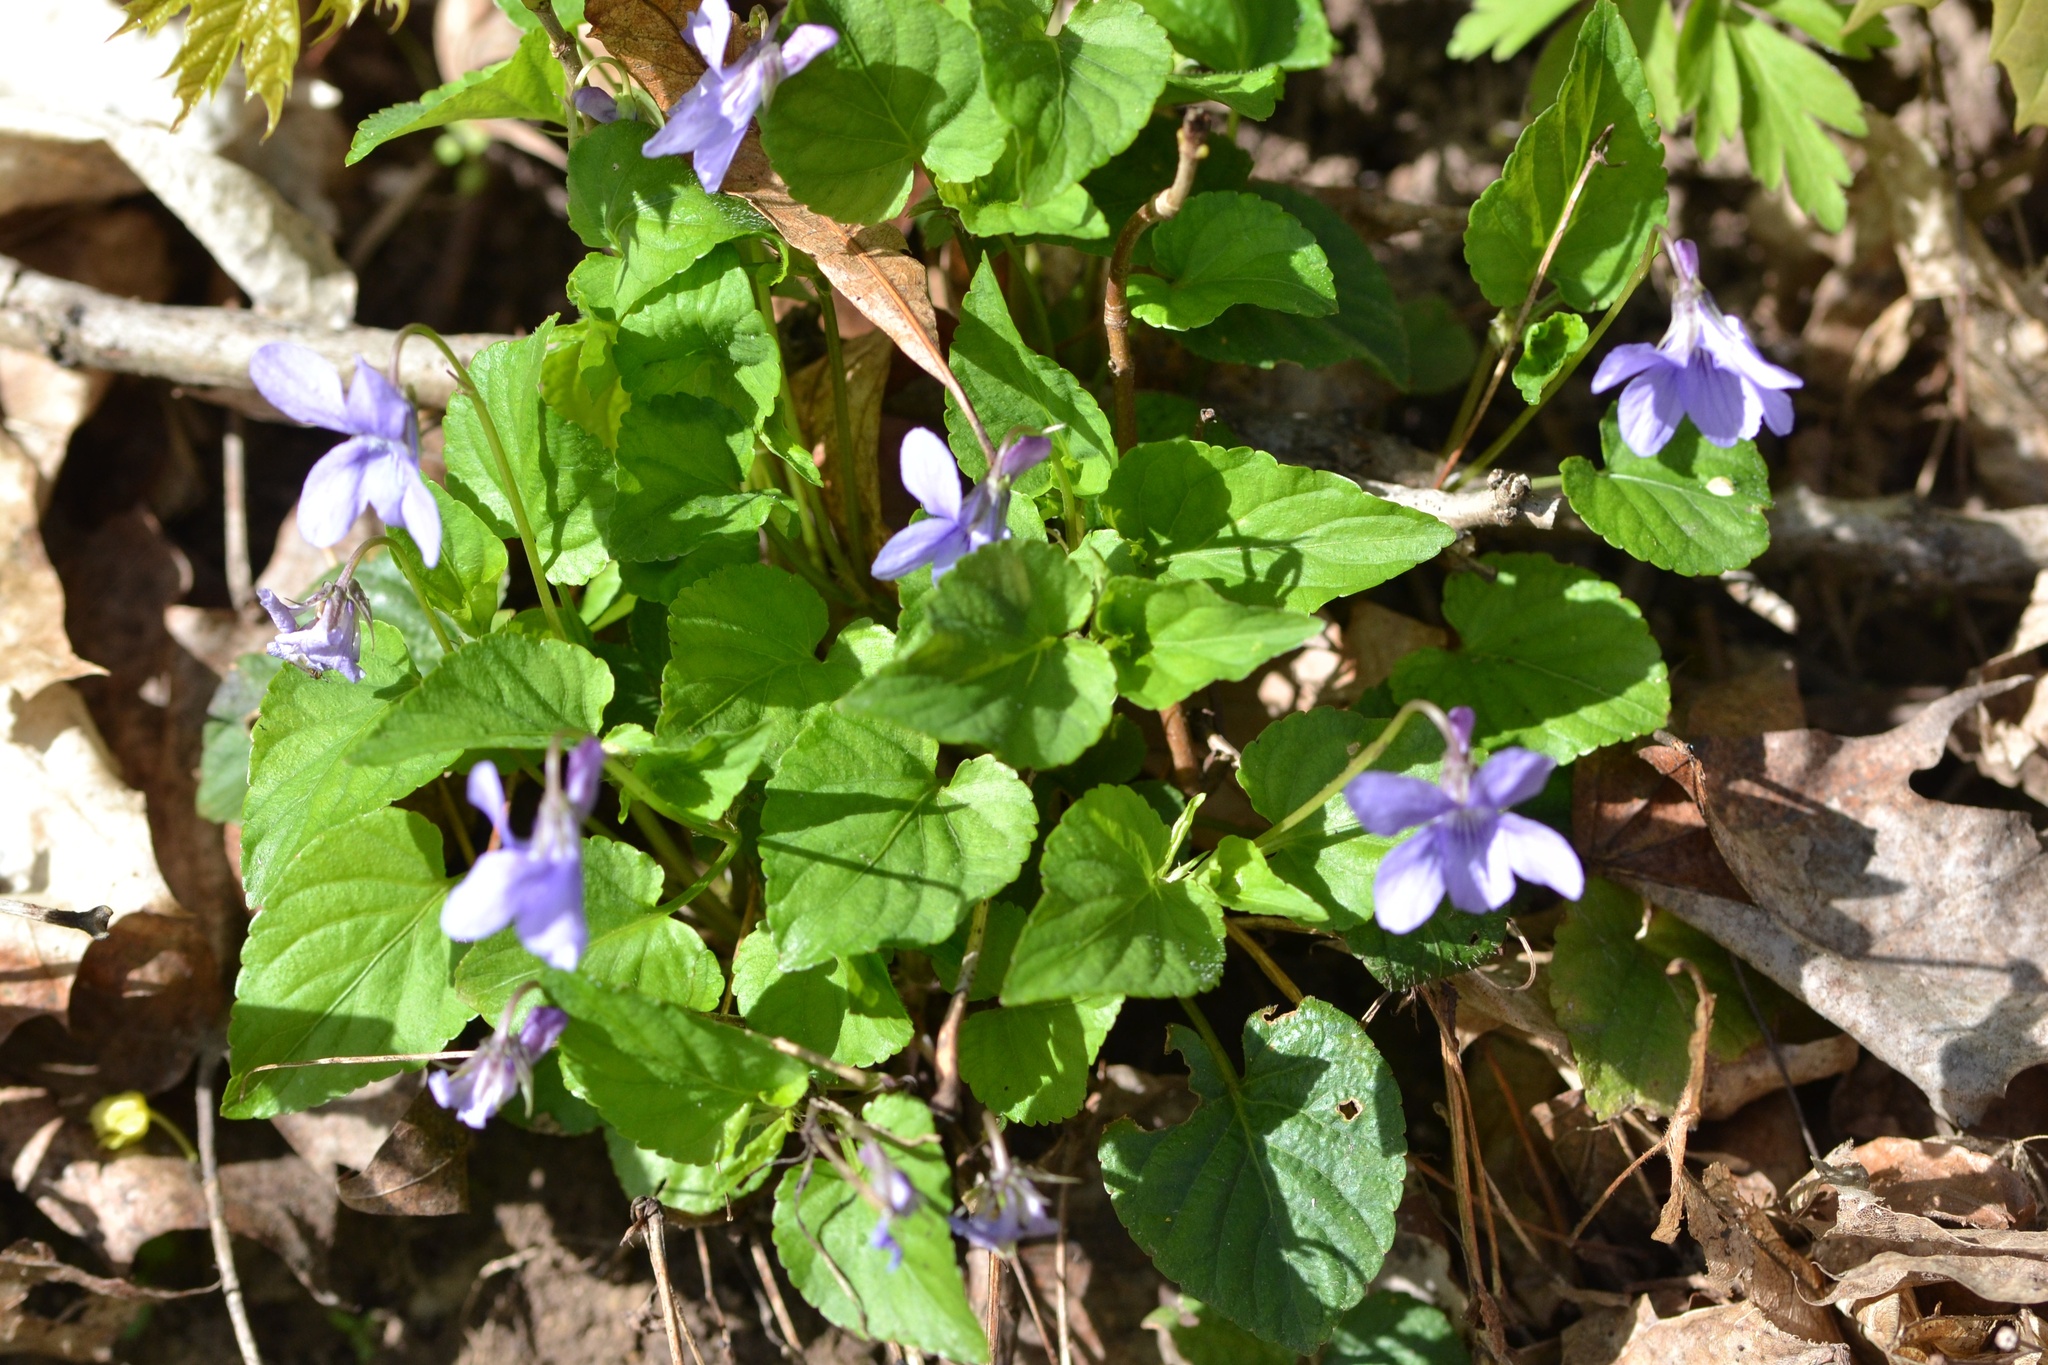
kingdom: Plantae
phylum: Tracheophyta
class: Magnoliopsida
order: Malpighiales
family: Violaceae
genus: Viola
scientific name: Viola reichenbachiana
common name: Early dog-violet
